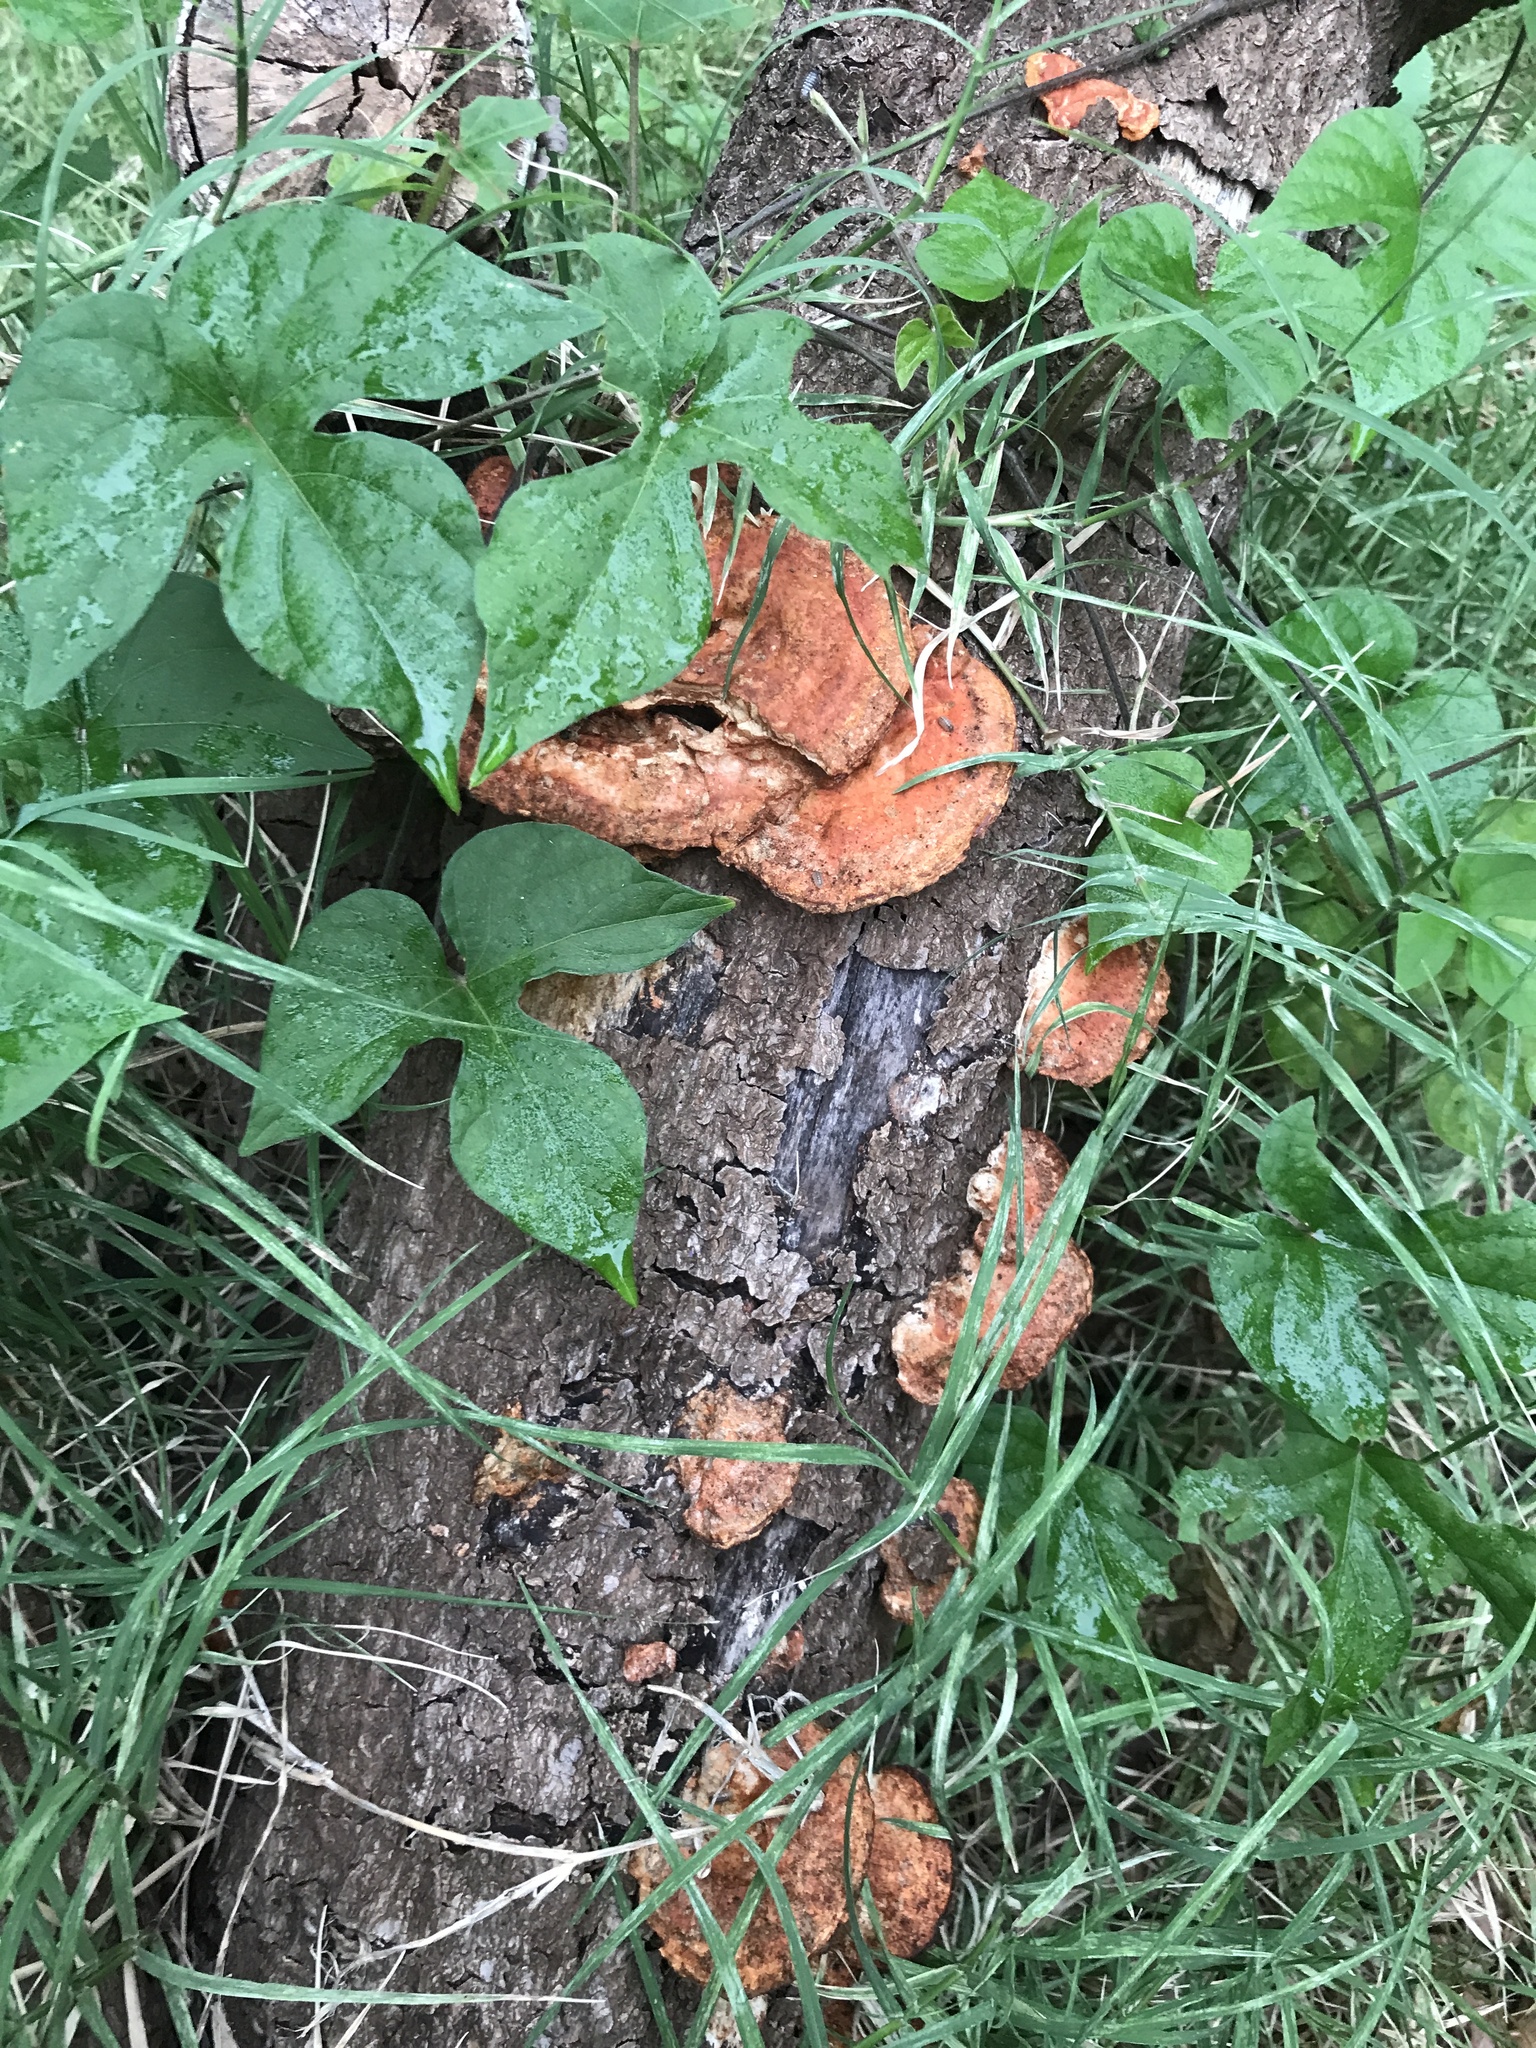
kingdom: Fungi
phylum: Basidiomycota
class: Agaricomycetes
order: Polyporales
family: Polyporaceae
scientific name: Polyporaceae
